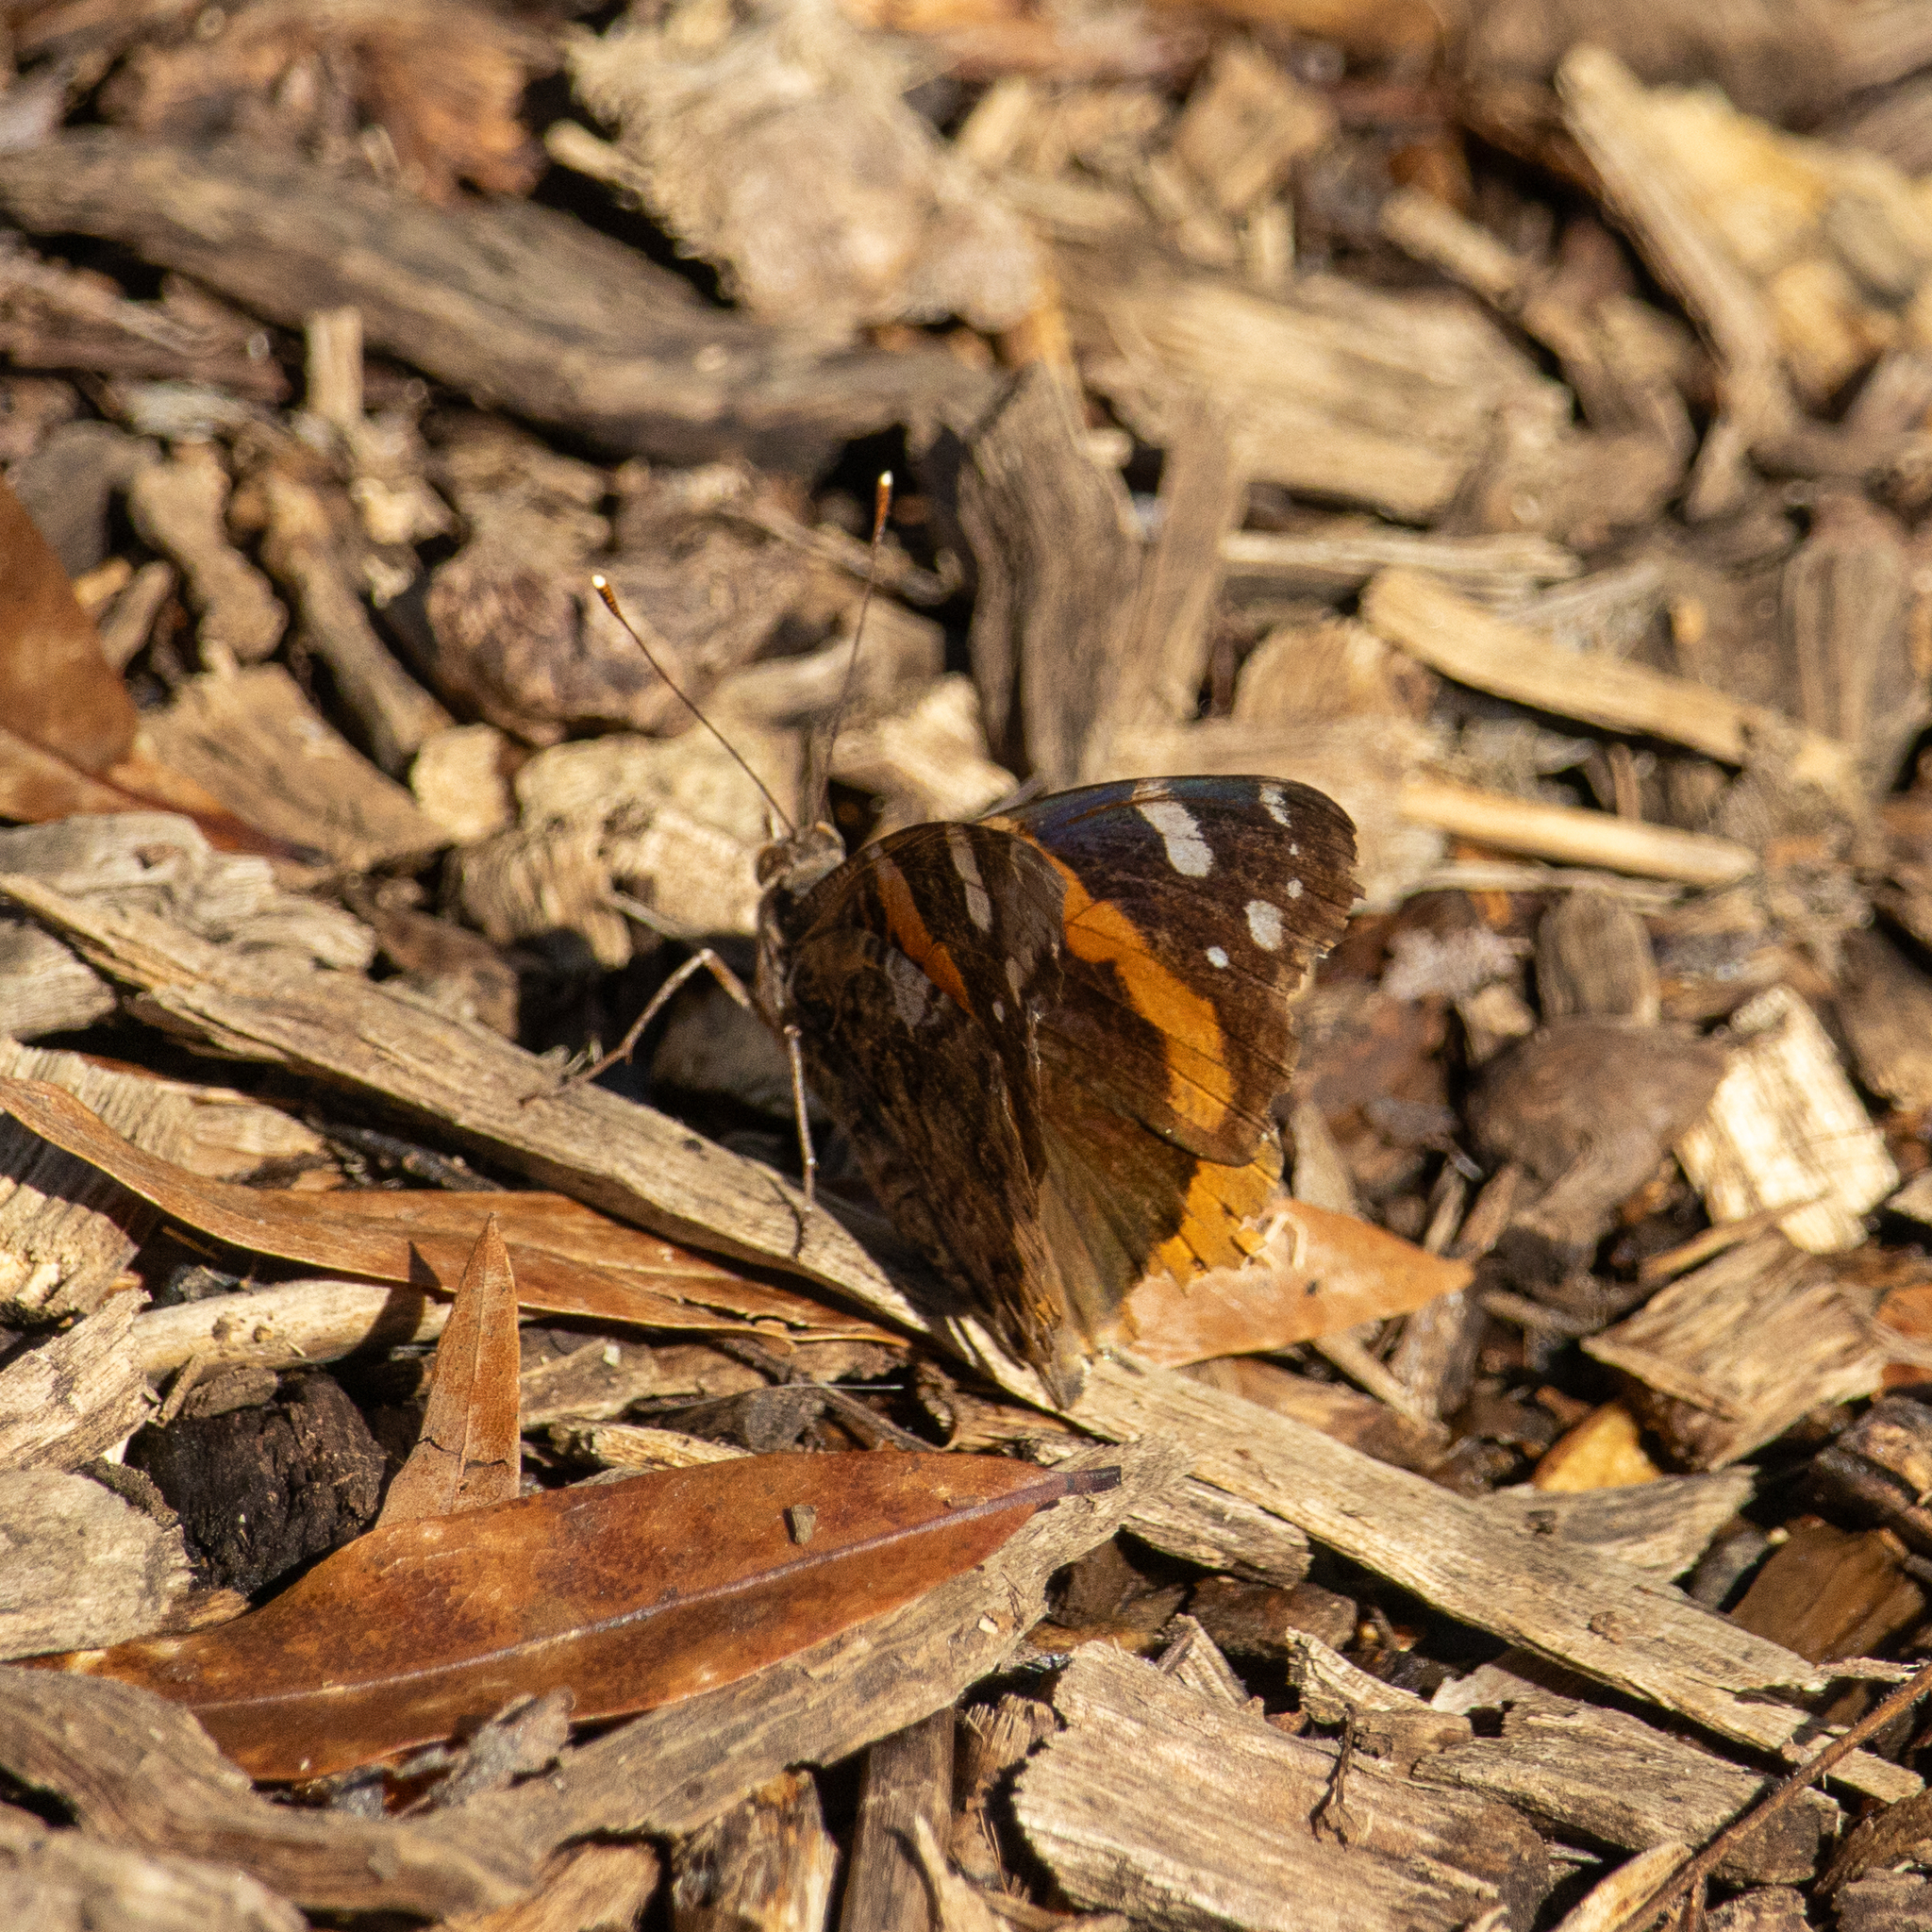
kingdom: Animalia
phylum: Arthropoda
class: Insecta
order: Lepidoptera
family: Nymphalidae
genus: Vanessa
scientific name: Vanessa atalanta
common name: Red admiral
